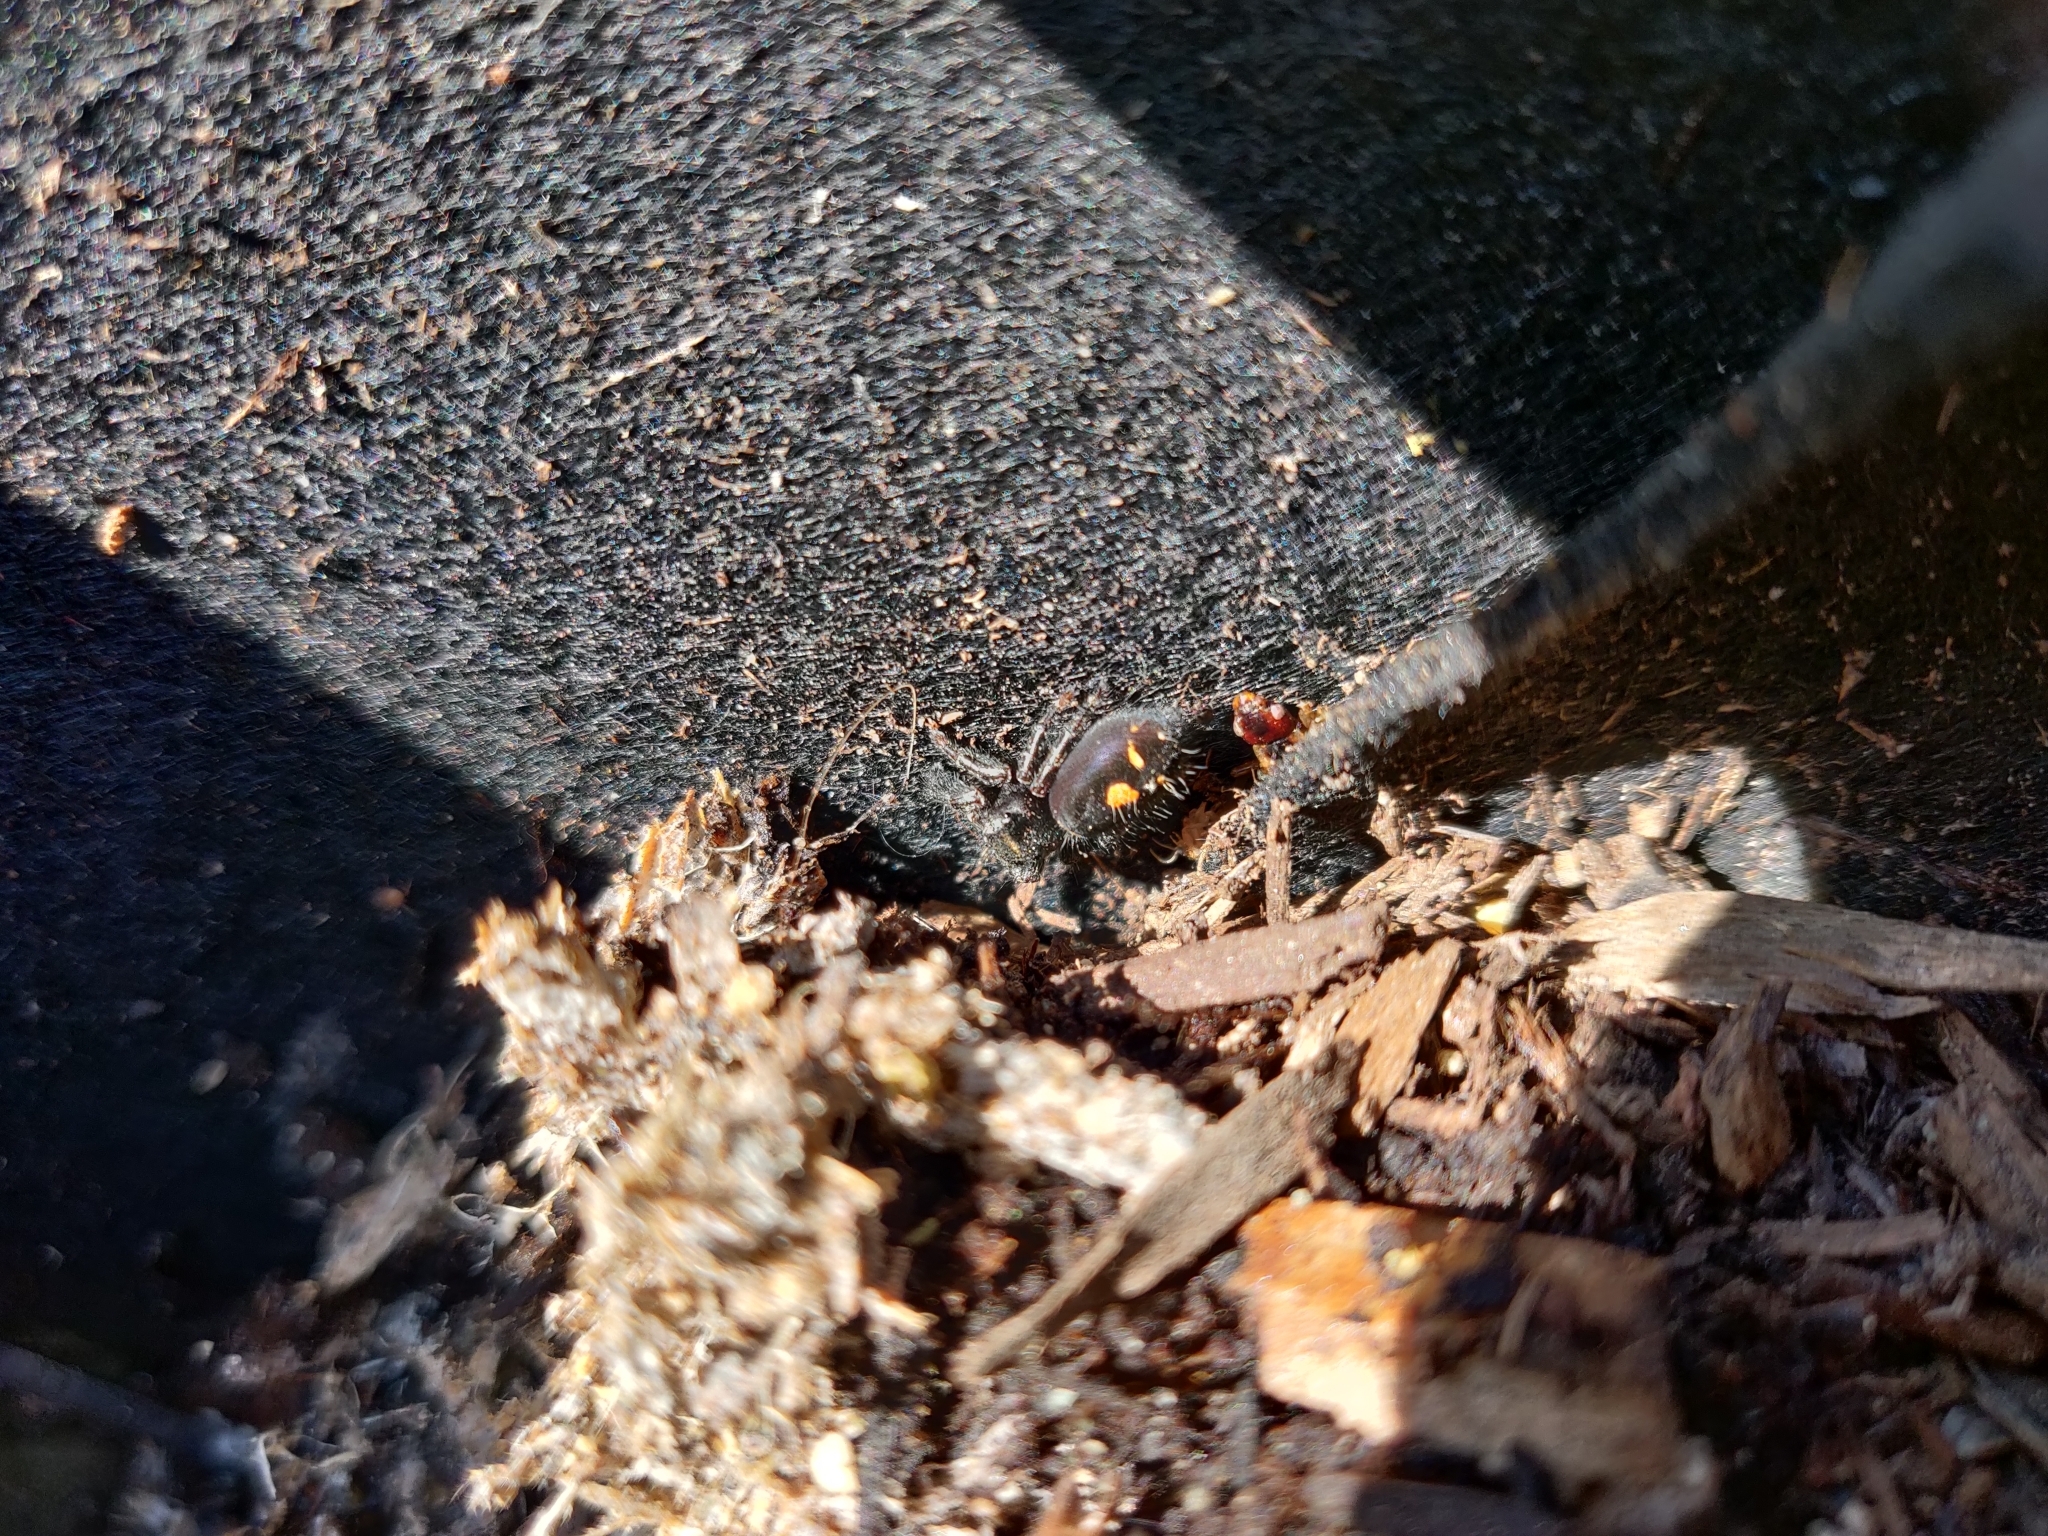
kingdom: Animalia
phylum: Arthropoda
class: Arachnida
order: Araneae
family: Salticidae
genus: Phidippus
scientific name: Phidippus audax
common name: Bold jumper
